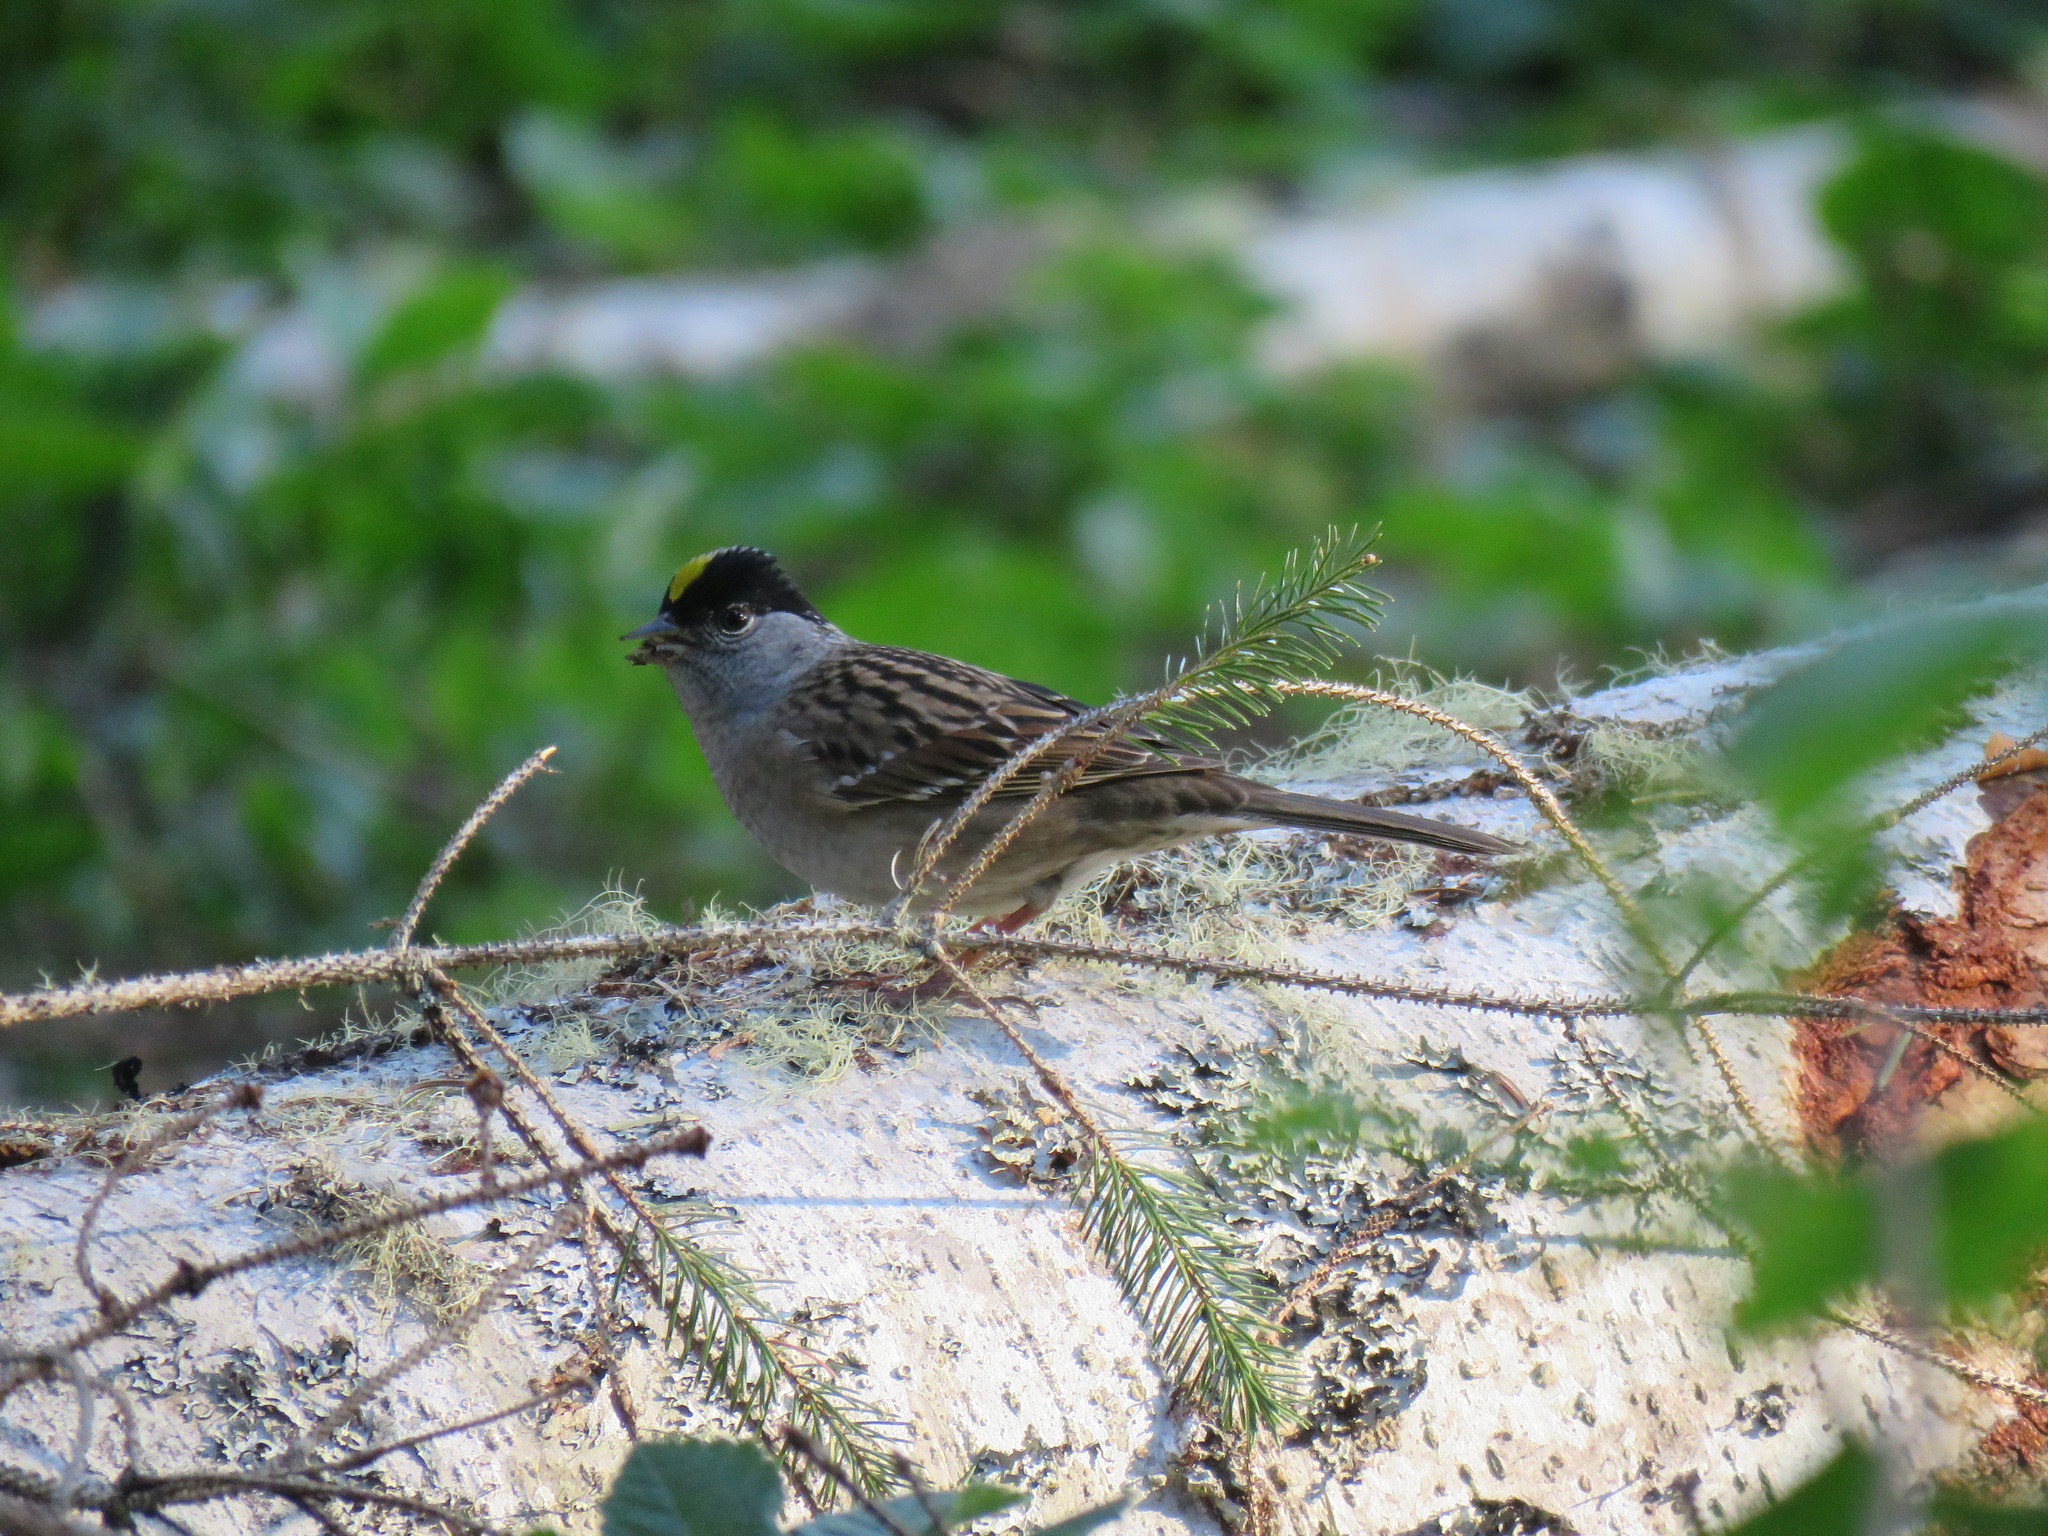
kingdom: Animalia
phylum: Chordata
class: Aves
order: Passeriformes
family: Passerellidae
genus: Zonotrichia
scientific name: Zonotrichia atricapilla
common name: Golden-crowned sparrow
